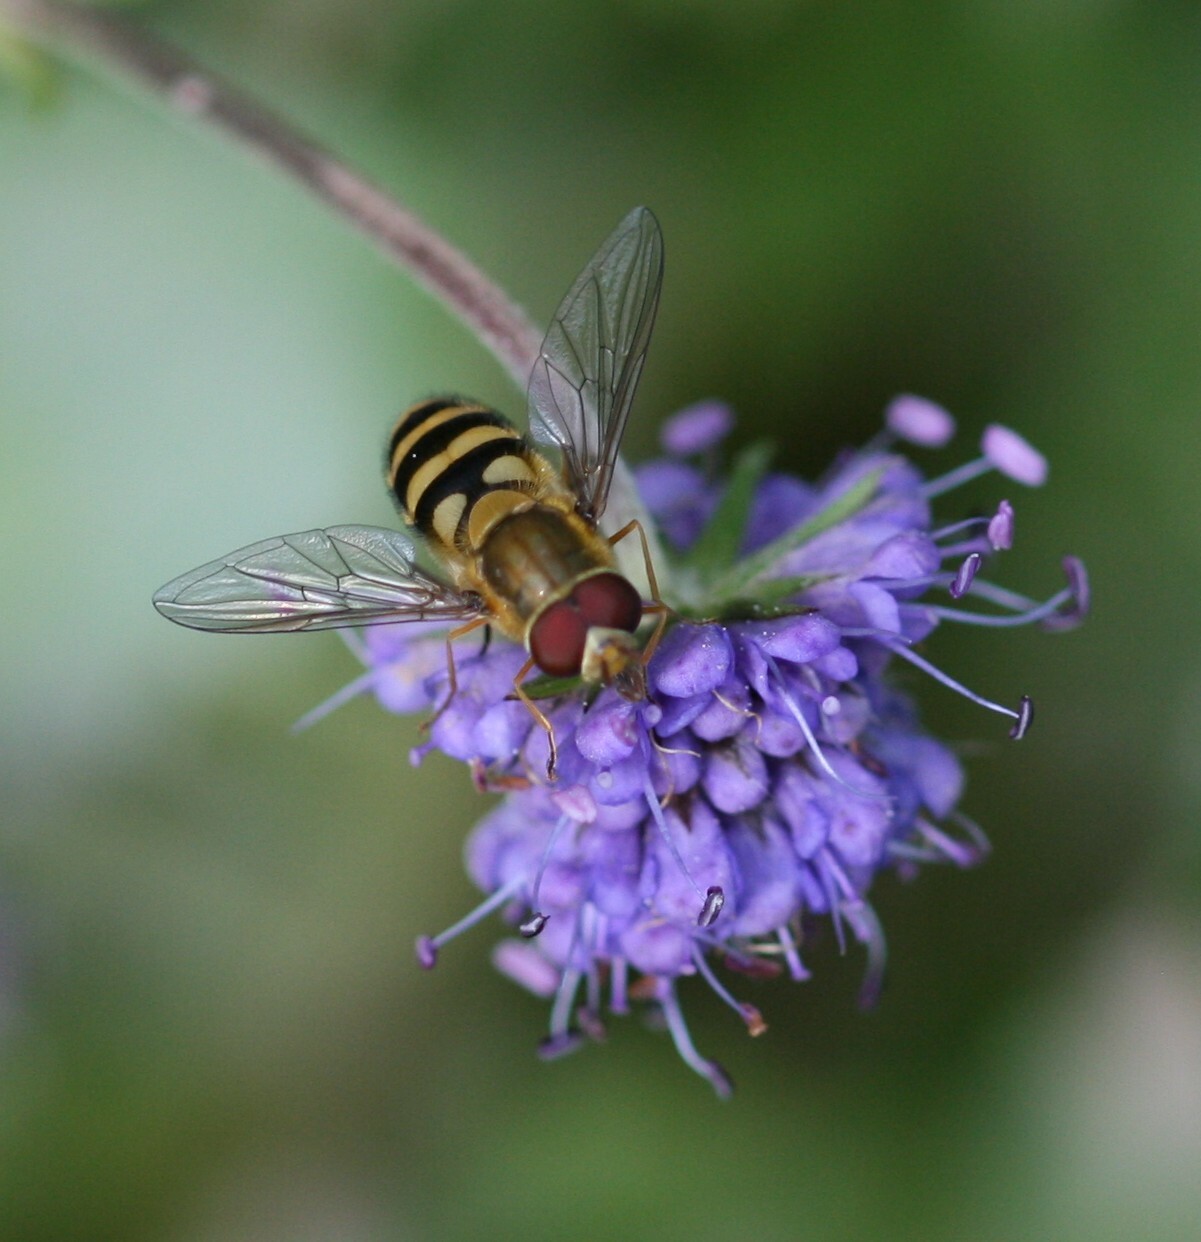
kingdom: Animalia
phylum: Arthropoda
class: Insecta
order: Diptera
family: Syrphidae
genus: Syrphus
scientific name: Syrphus
